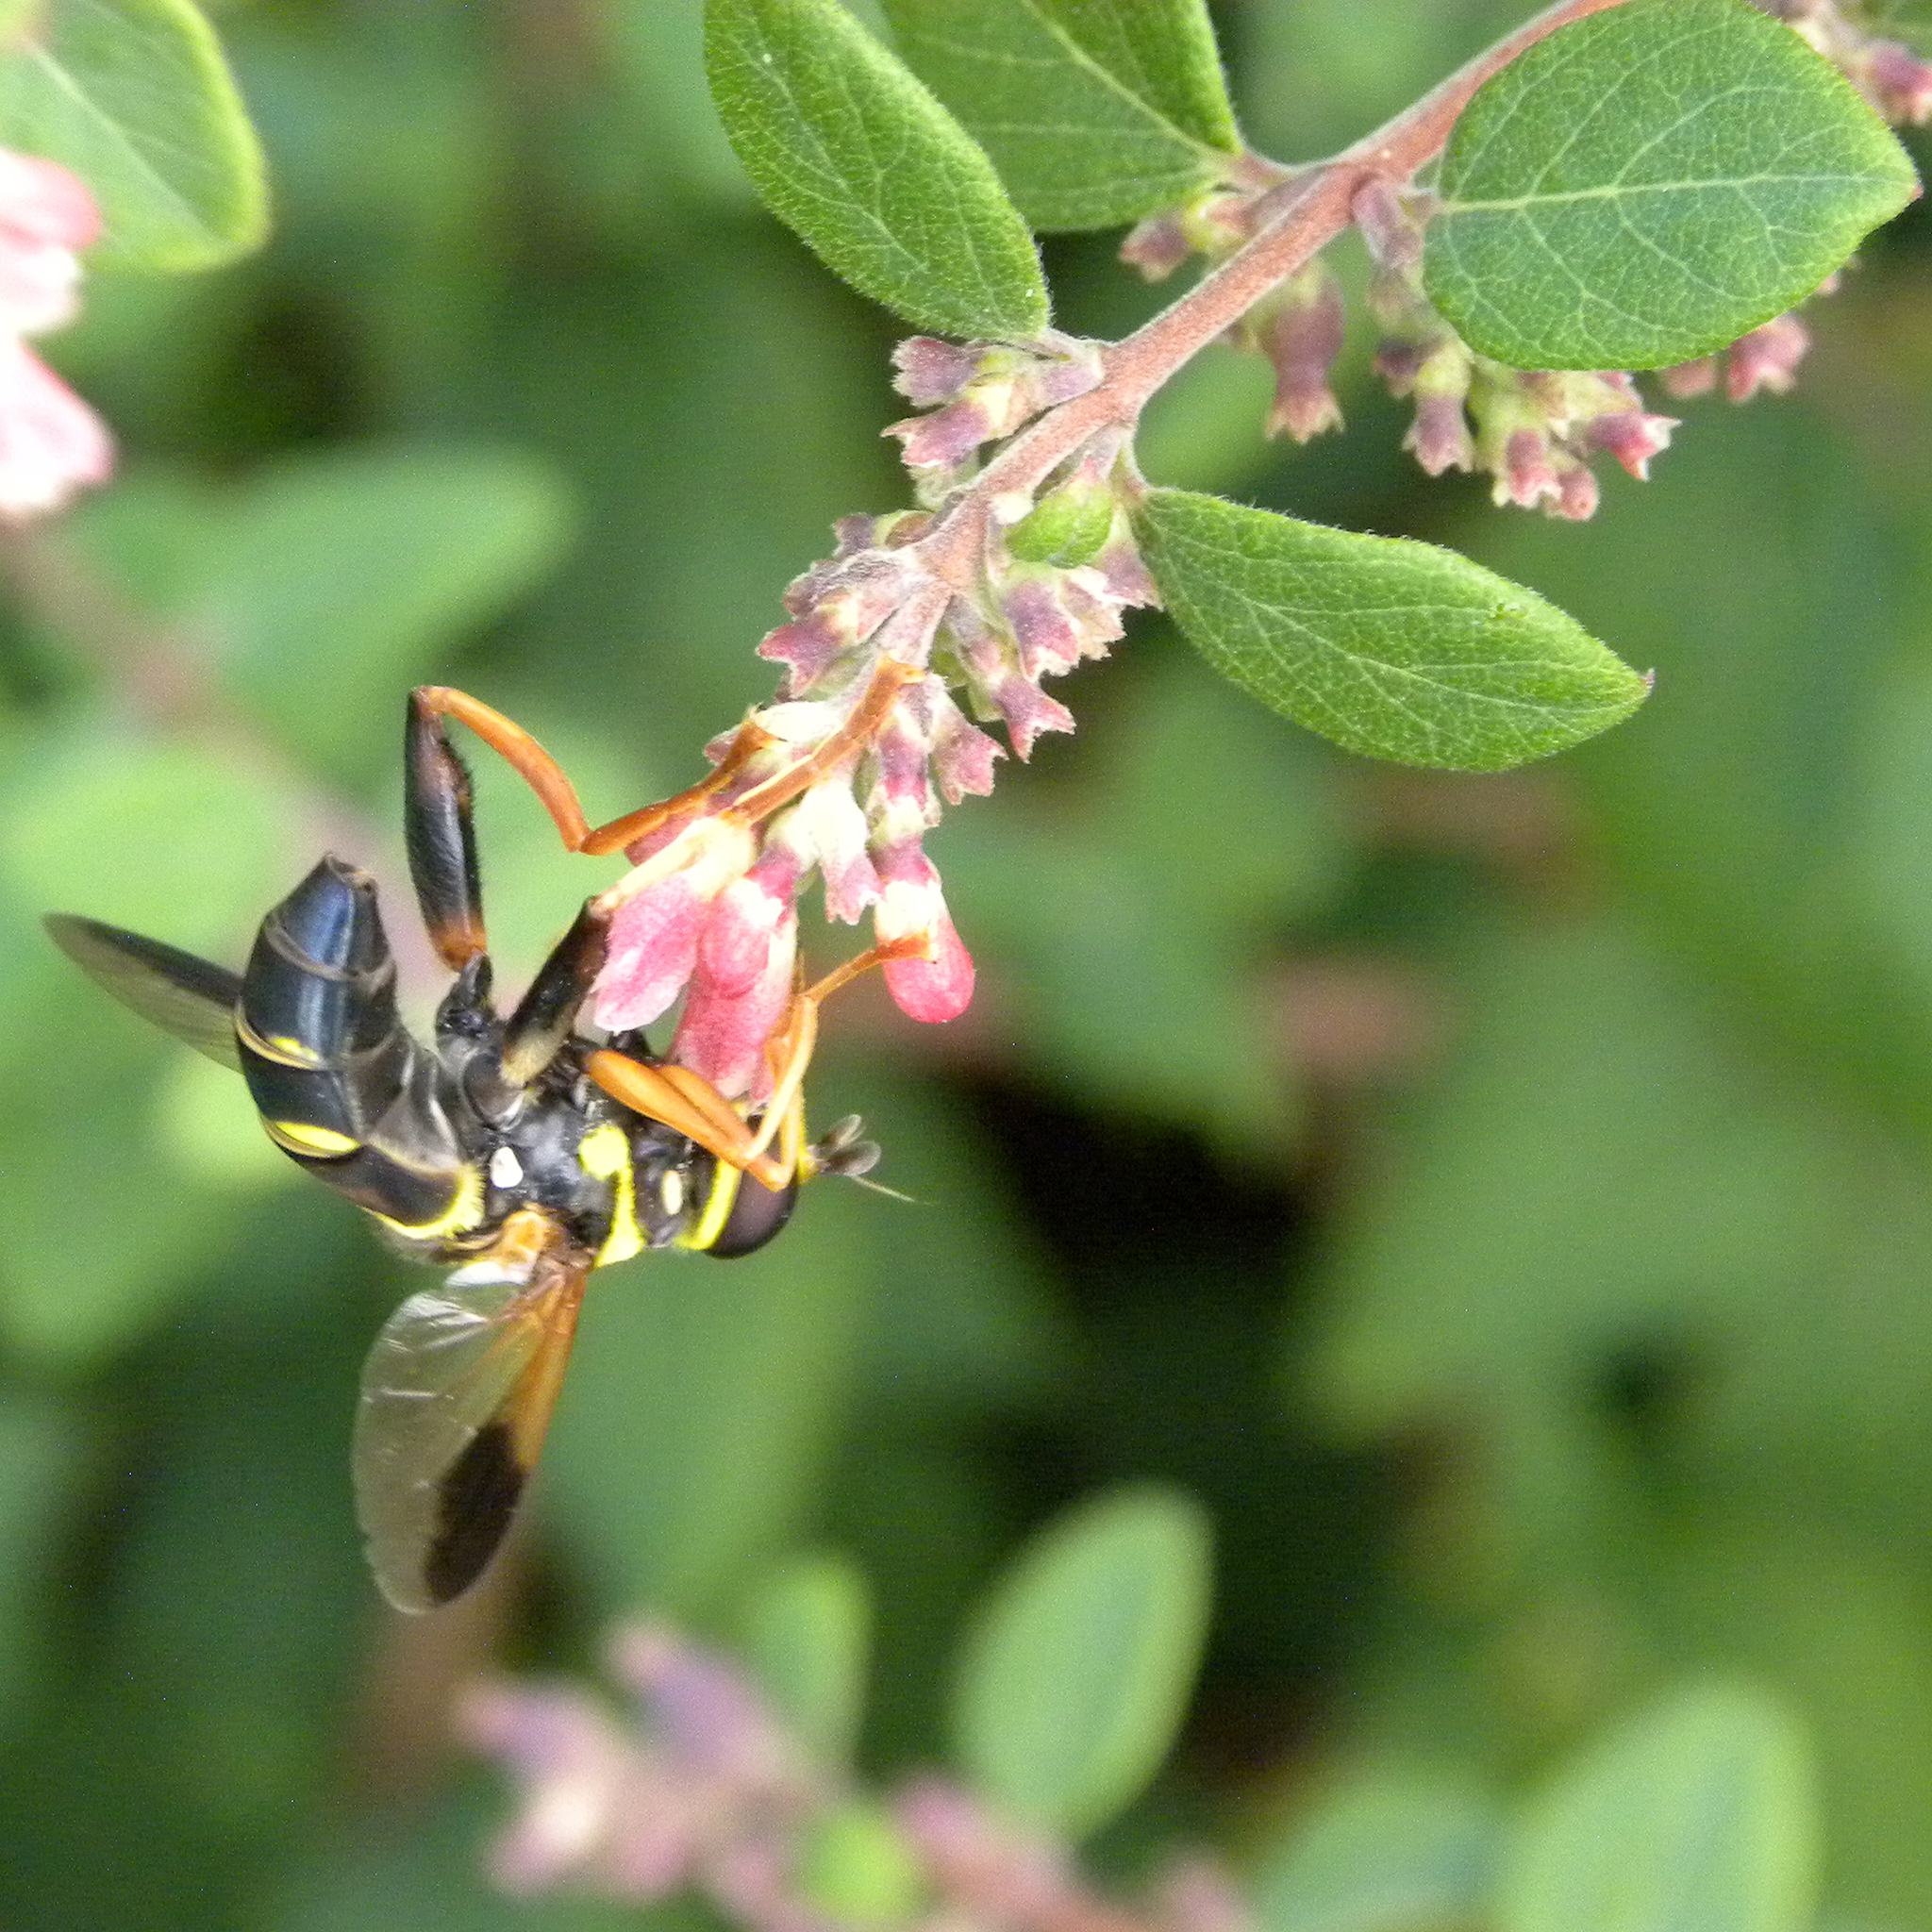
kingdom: Animalia
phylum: Arthropoda
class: Insecta
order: Diptera
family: Syrphidae
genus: Meromacrus
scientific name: Meromacrus acutus
